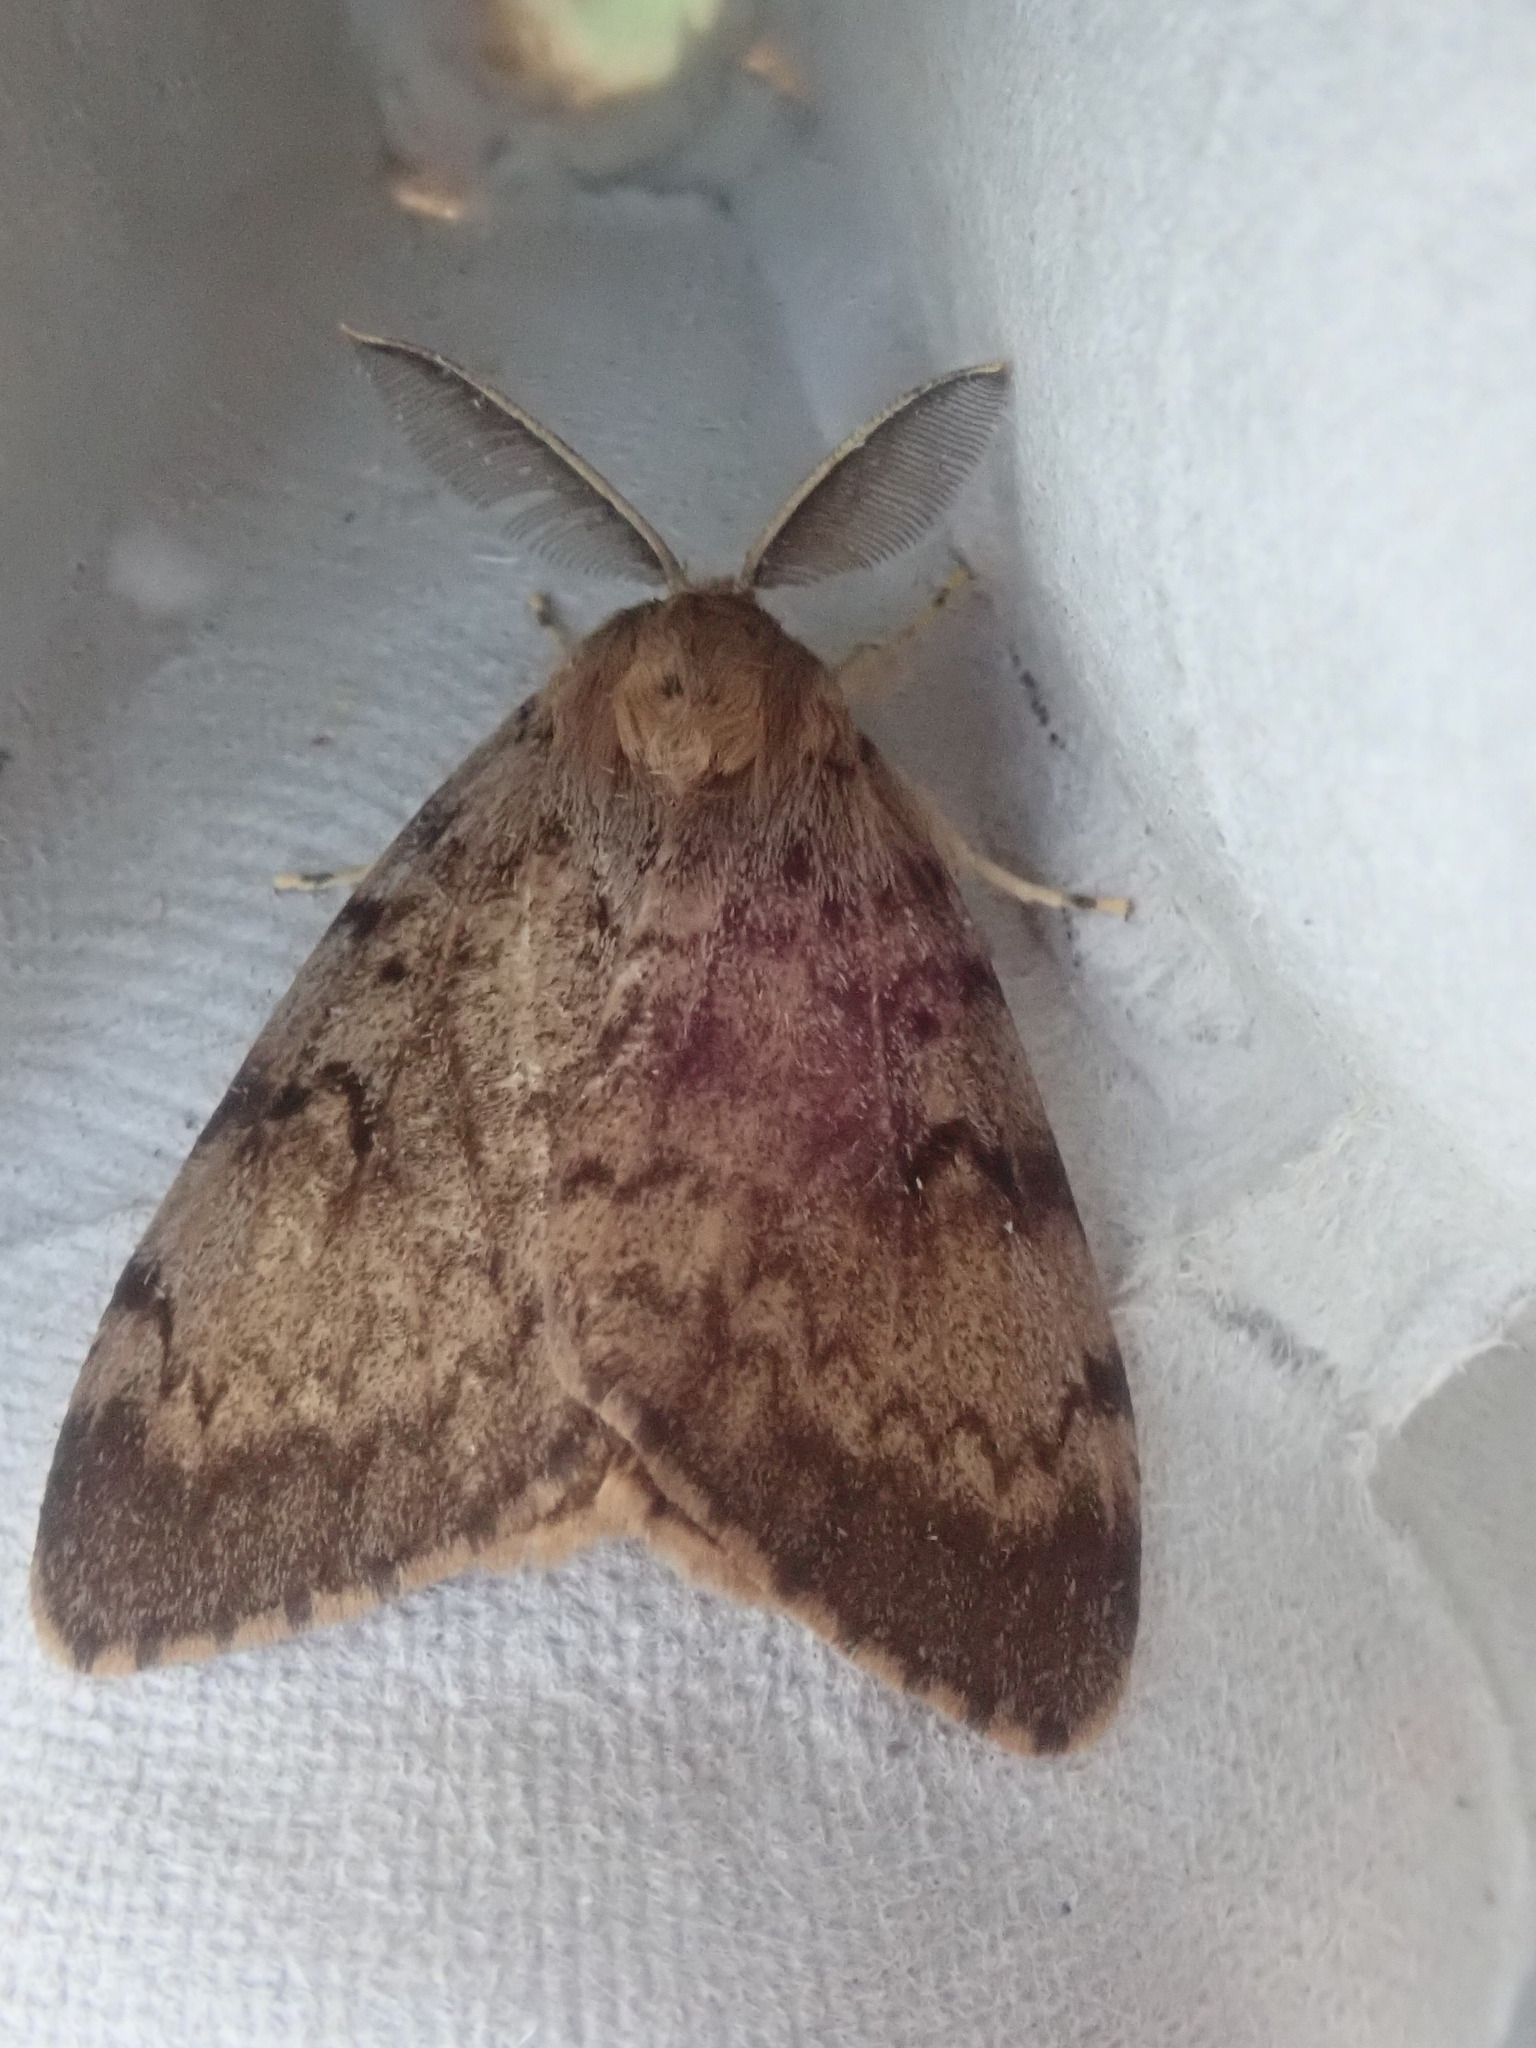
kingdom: Animalia
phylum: Arthropoda
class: Insecta
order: Lepidoptera
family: Erebidae
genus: Lymantria
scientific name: Lymantria dispar
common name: Gypsy moth
